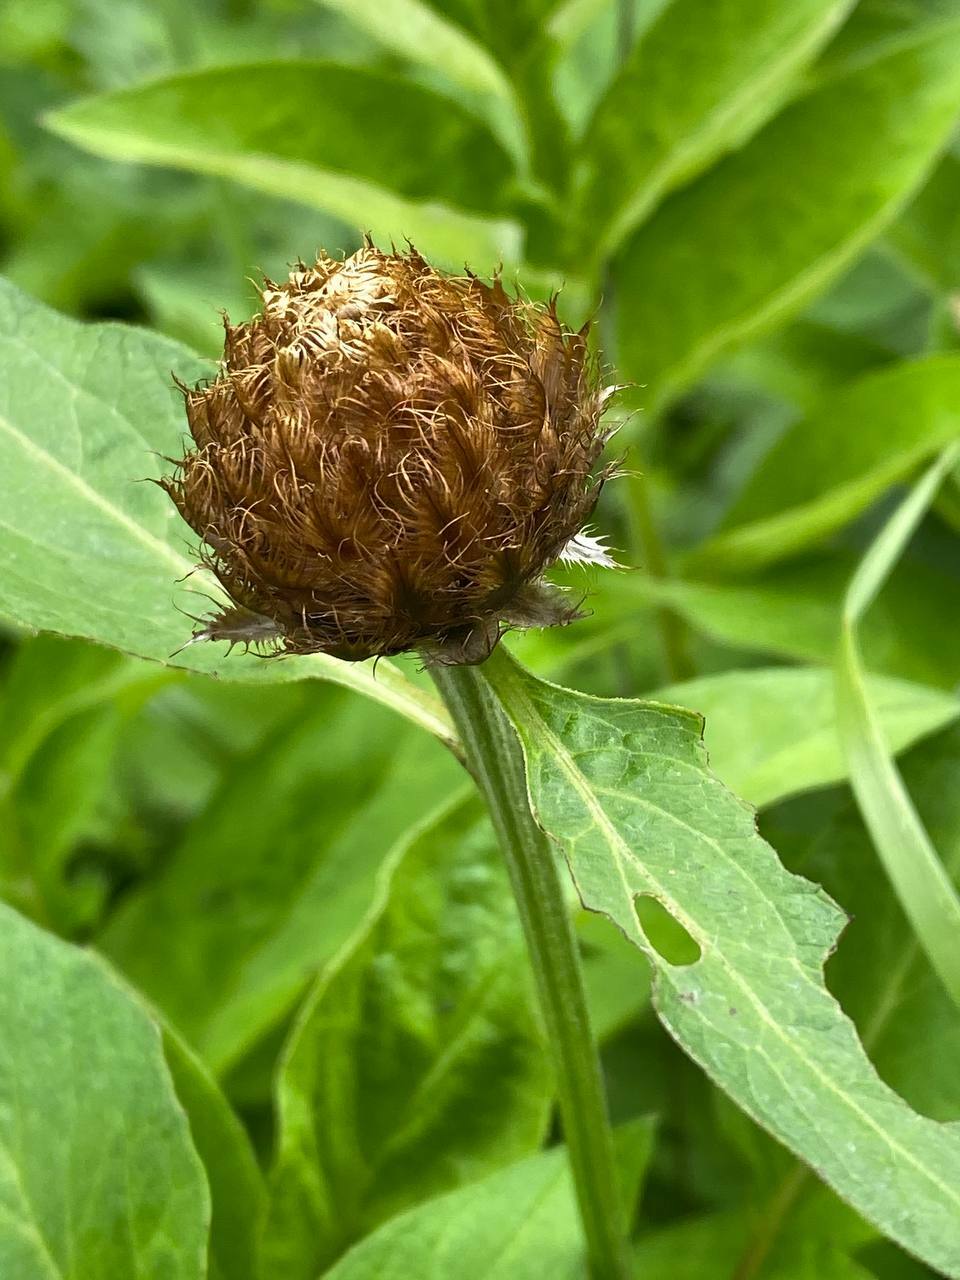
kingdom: Plantae
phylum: Tracheophyta
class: Magnoliopsida
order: Asterales
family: Asteraceae
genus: Psephellus
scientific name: Psephellus dealbatus
